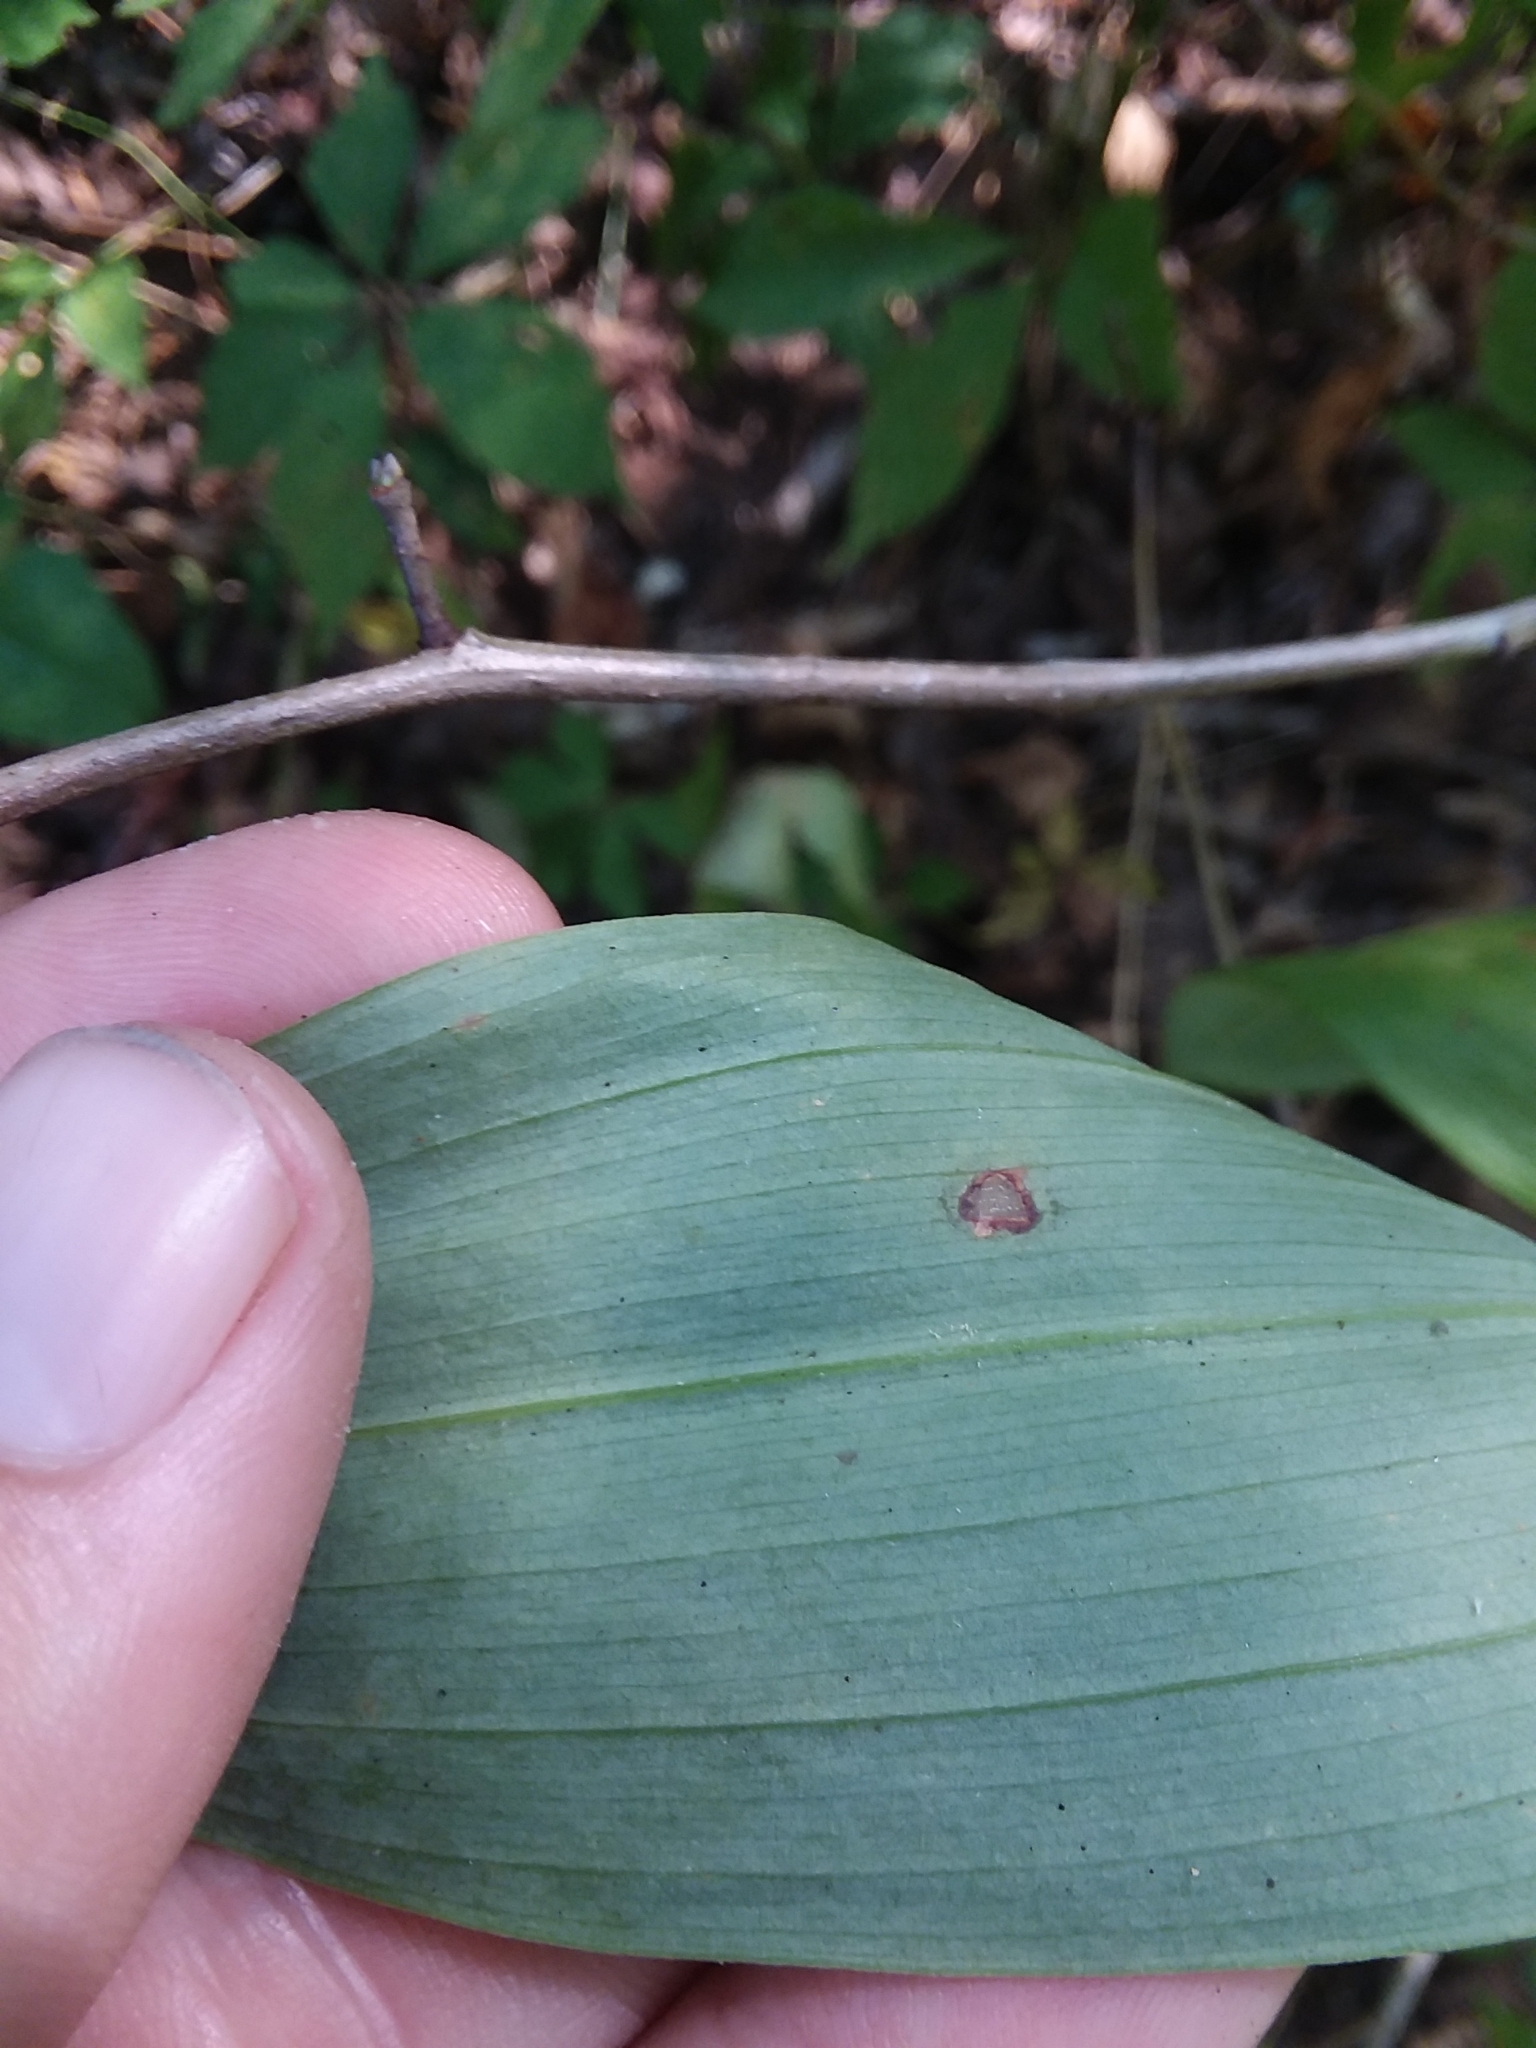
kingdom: Plantae
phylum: Tracheophyta
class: Liliopsida
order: Asparagales
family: Asparagaceae
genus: Polygonatum
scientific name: Polygonatum biflorum
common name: American solomon's-seal
